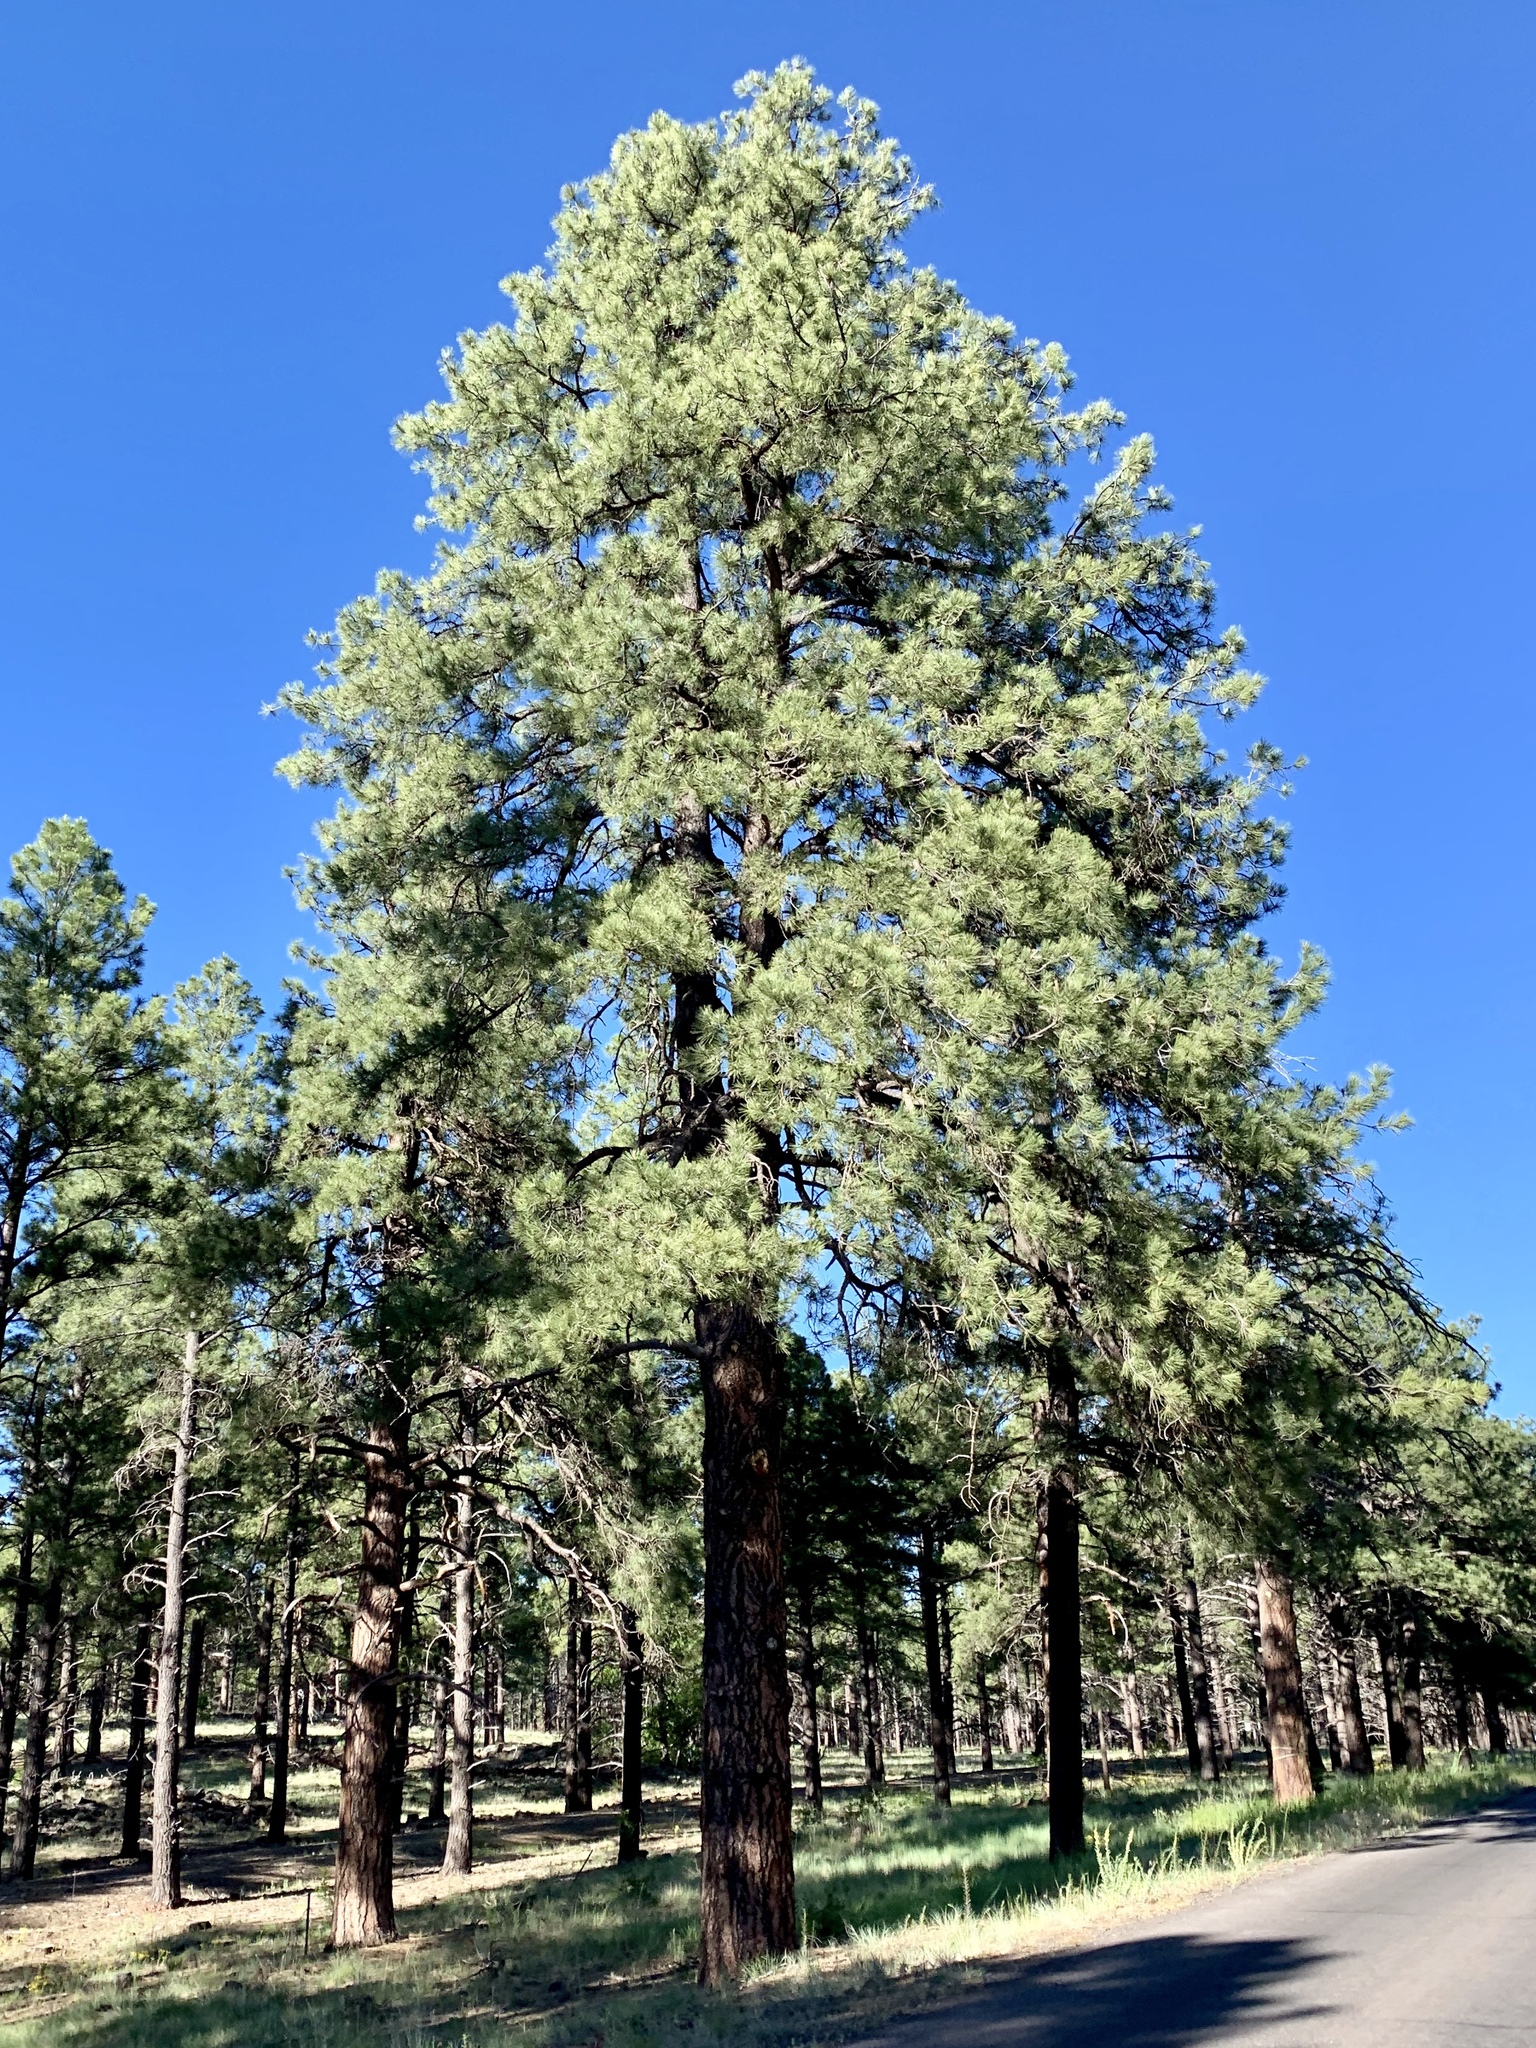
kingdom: Plantae
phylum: Tracheophyta
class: Pinopsida
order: Pinales
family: Pinaceae
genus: Pinus
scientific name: Pinus ponderosa
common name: Western yellow-pine
